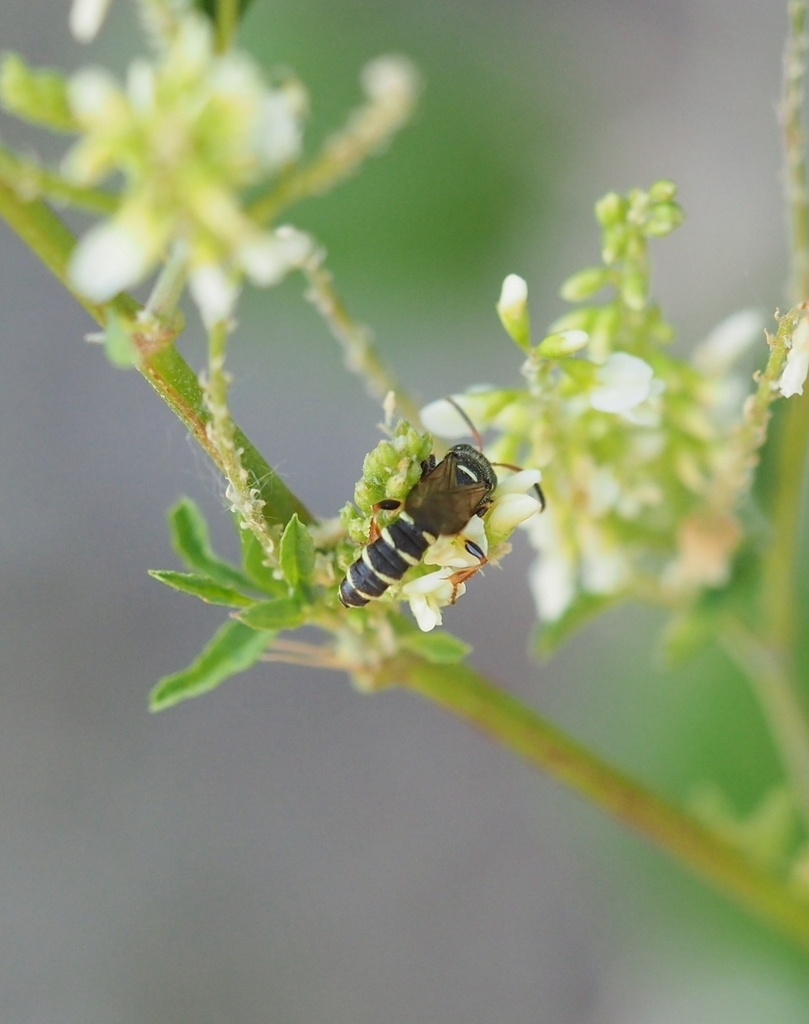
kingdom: Animalia
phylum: Arthropoda
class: Insecta
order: Hymenoptera
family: Crabronidae
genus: Cerceris
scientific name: Cerceris interrupta
